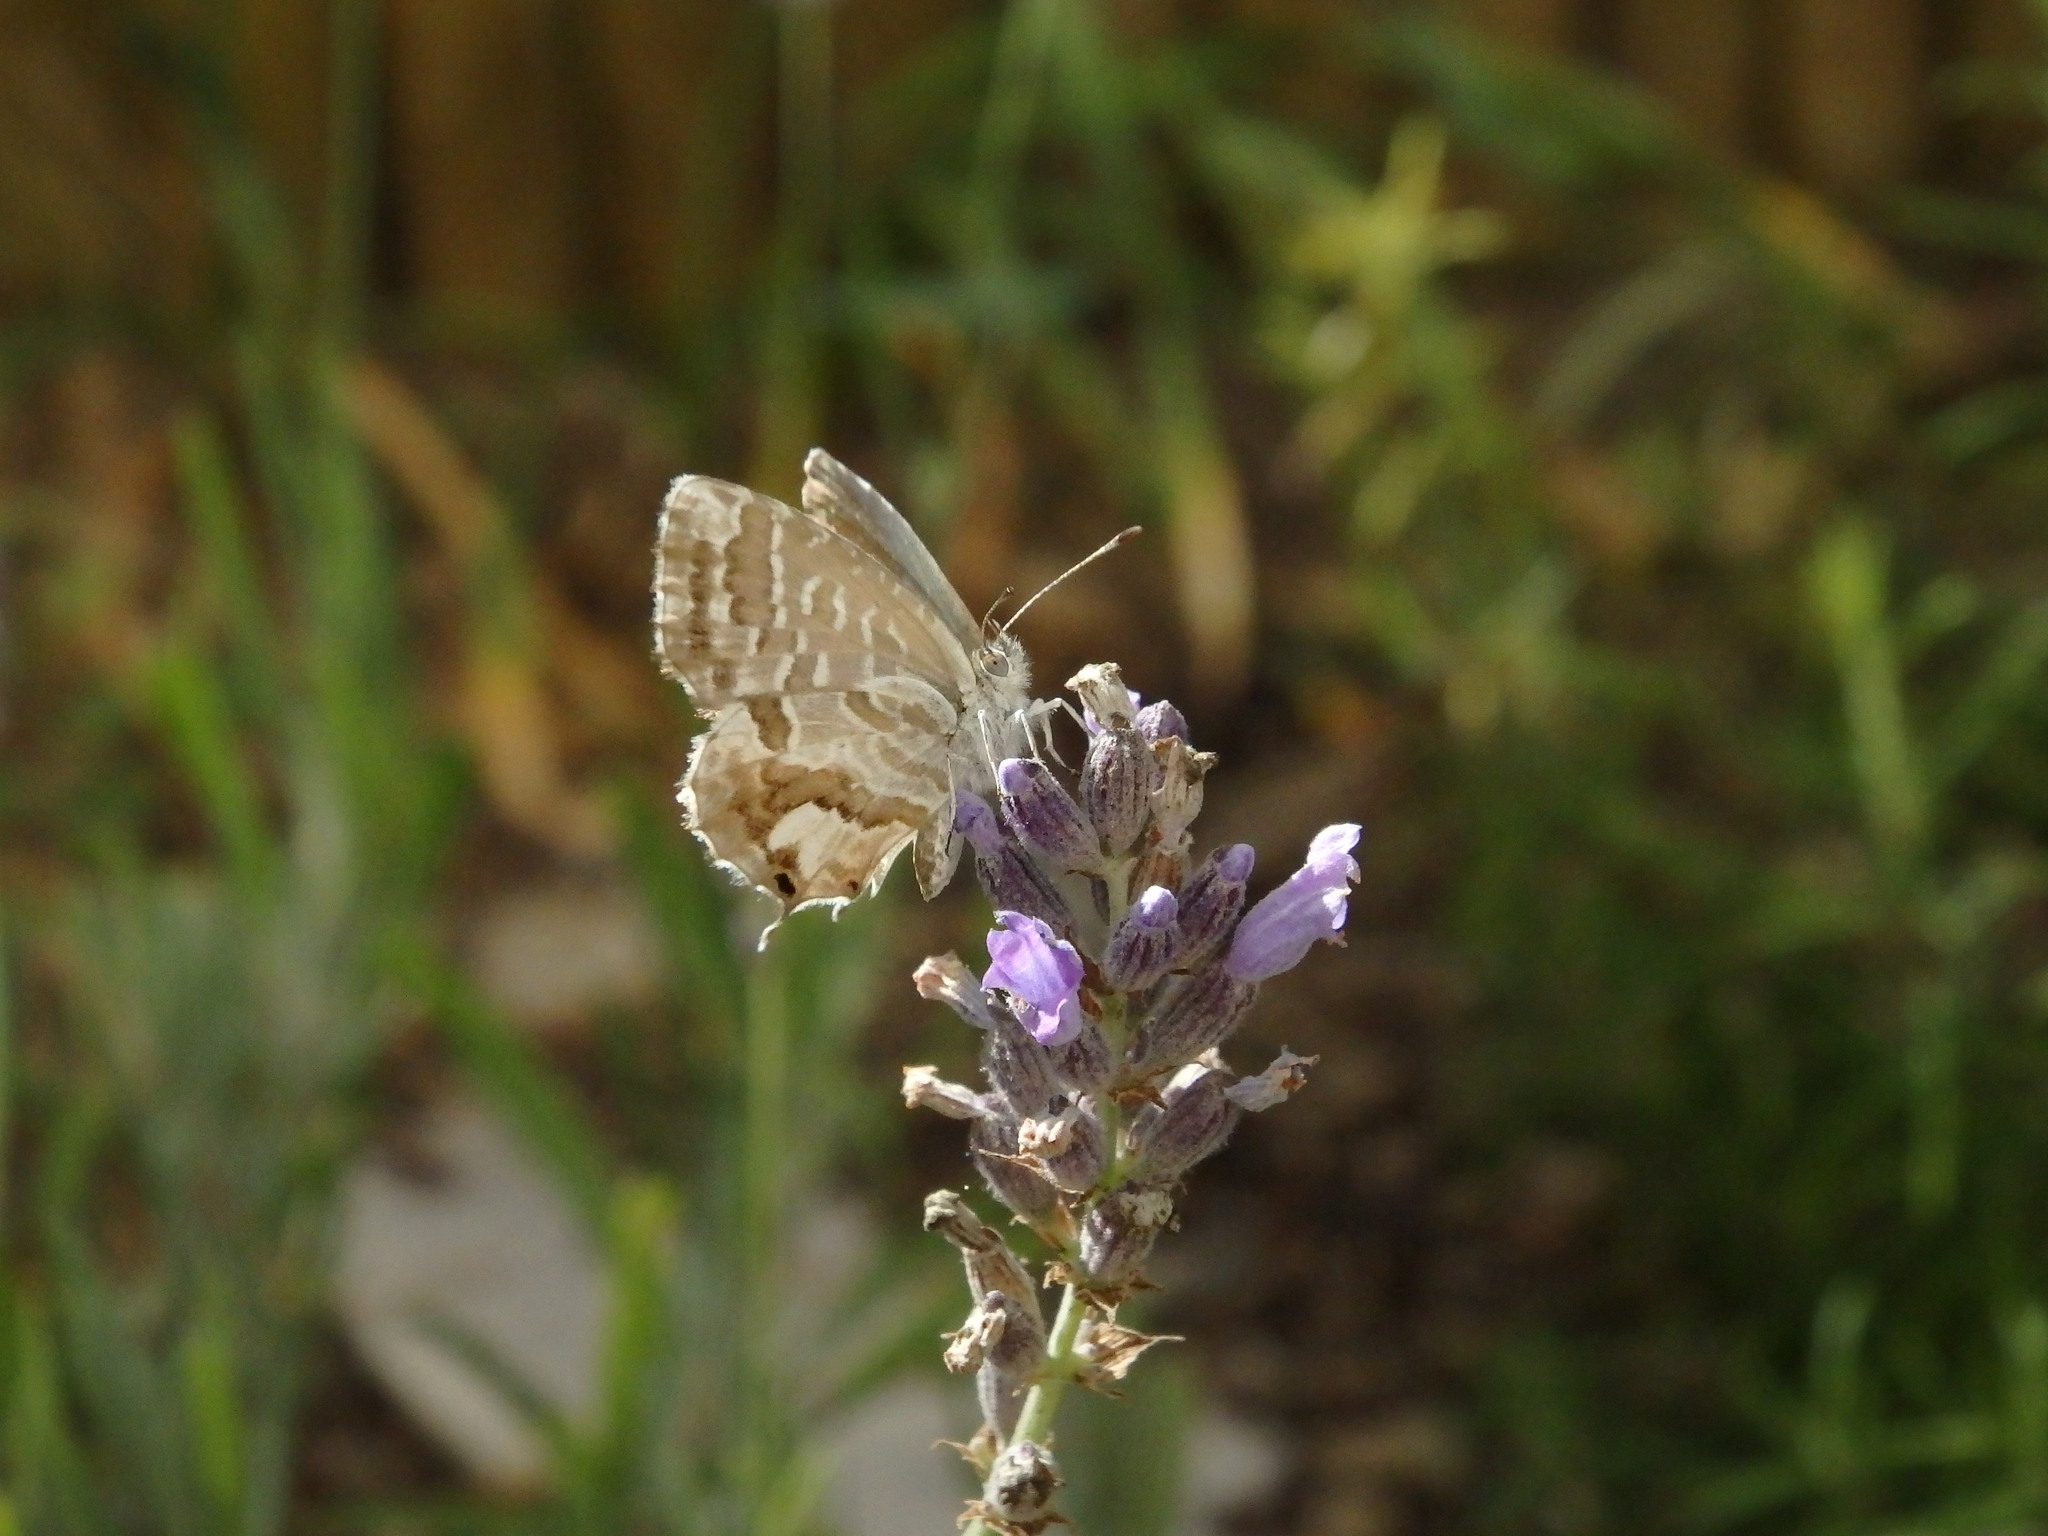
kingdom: Animalia
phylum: Arthropoda
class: Insecta
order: Lepidoptera
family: Lycaenidae
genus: Cacyreus
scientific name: Cacyreus marshalli
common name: Geranium bronze
